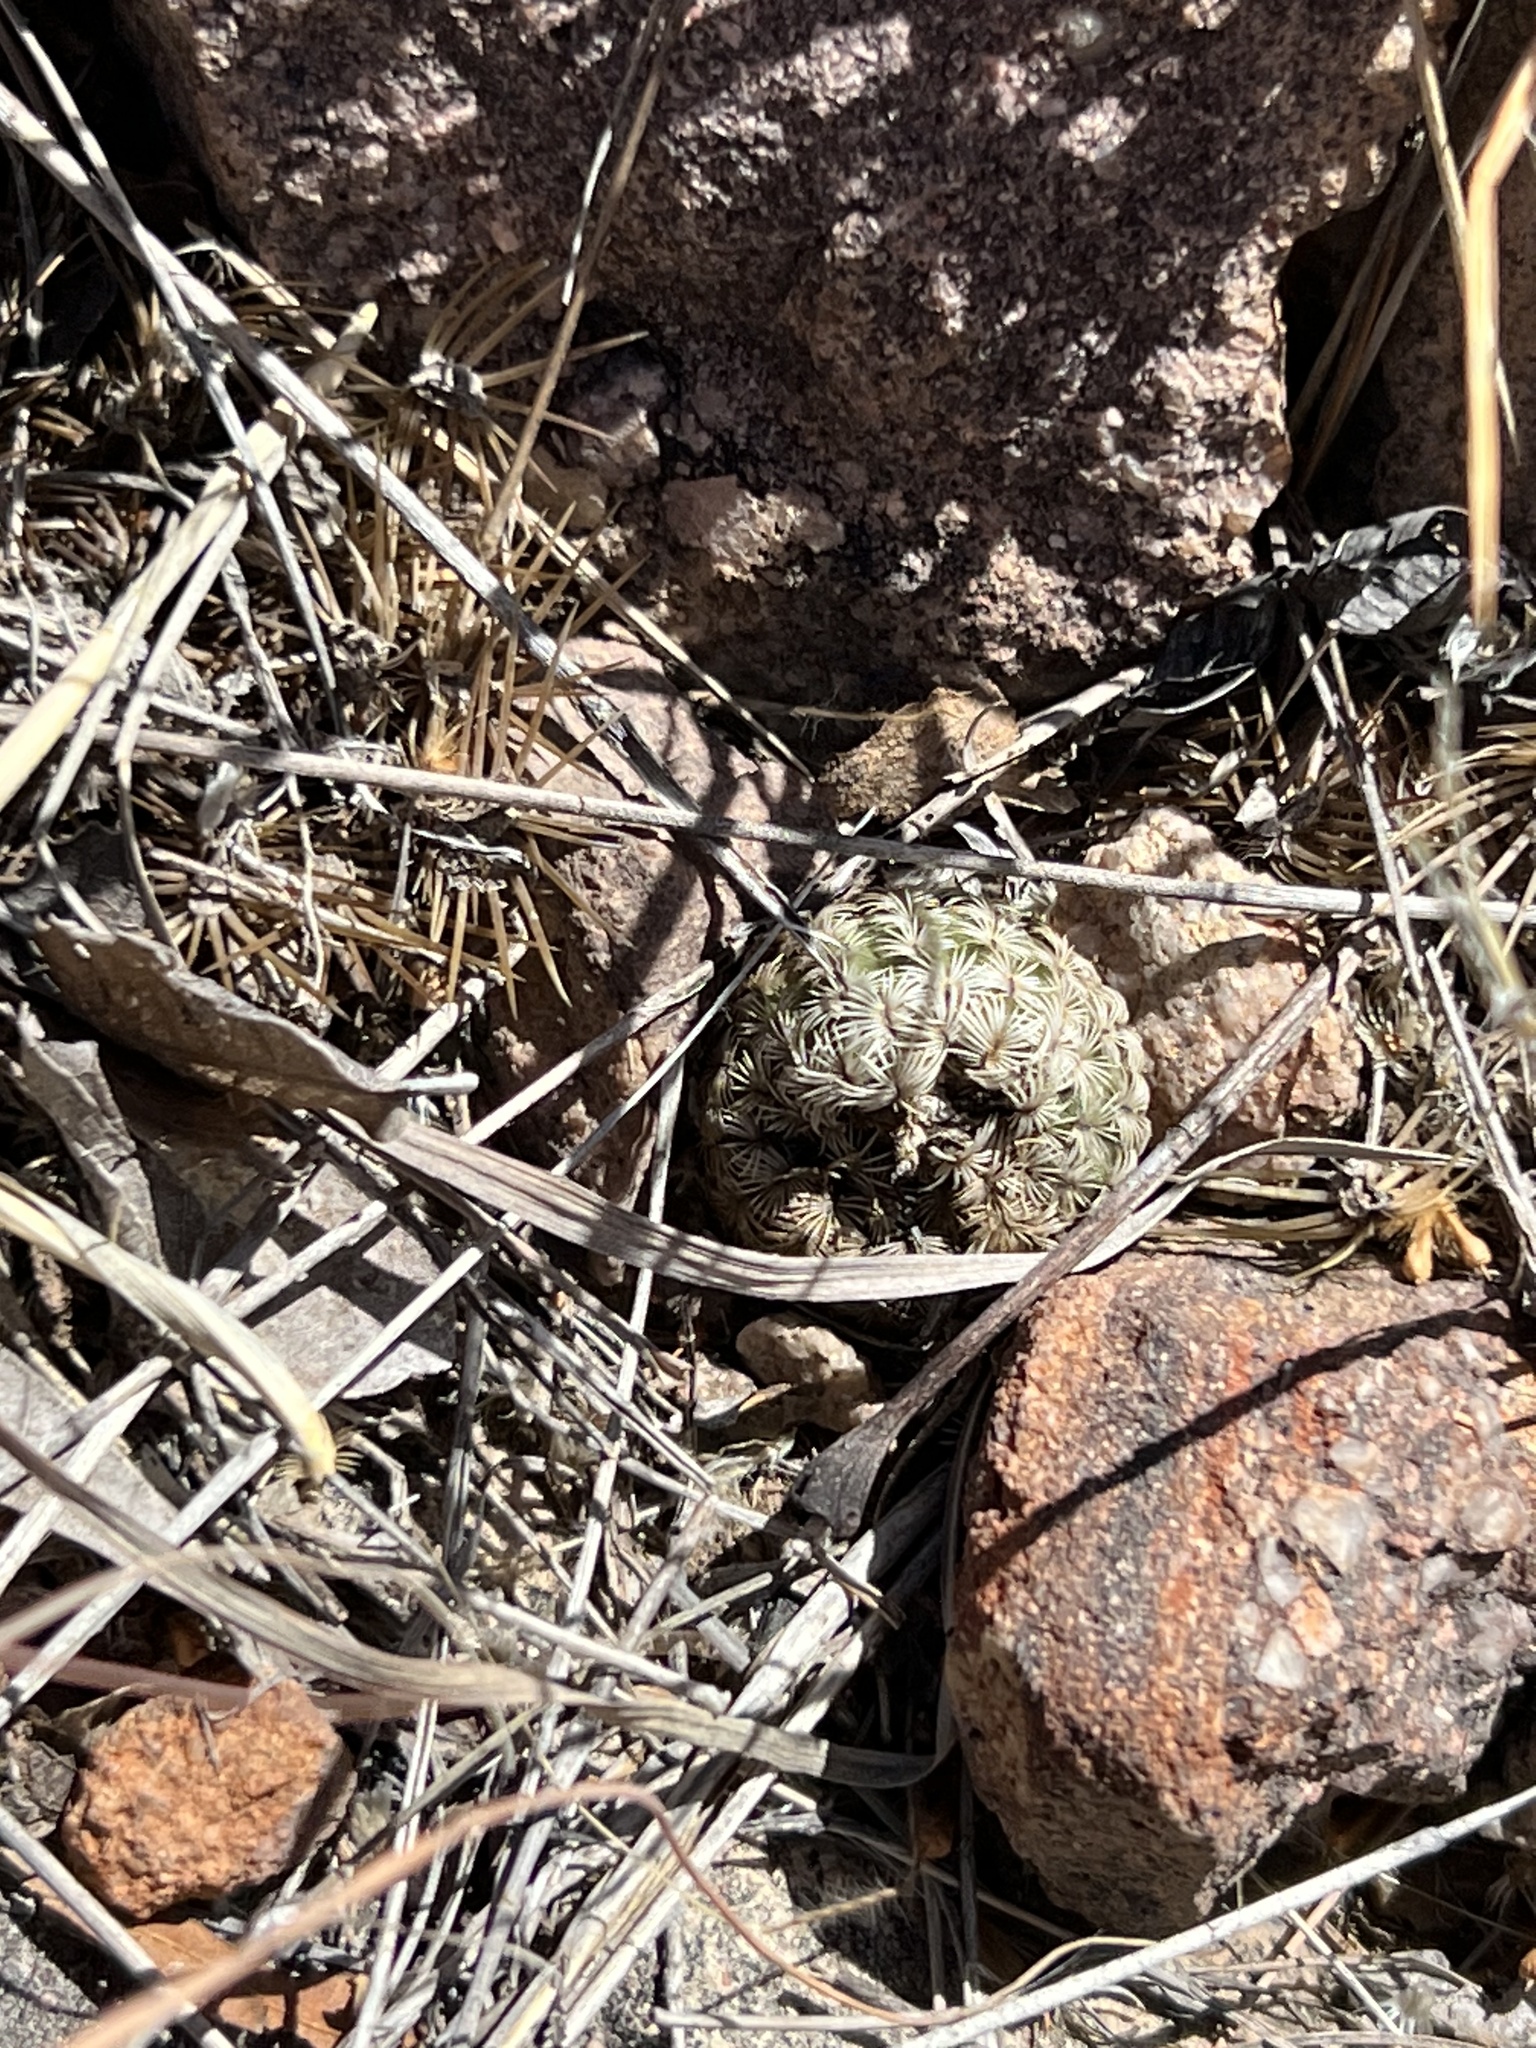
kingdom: Plantae
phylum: Tracheophyta
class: Magnoliopsida
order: Caryophyllales
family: Cactaceae
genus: Echinocereus
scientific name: Echinocereus rigidissimus
